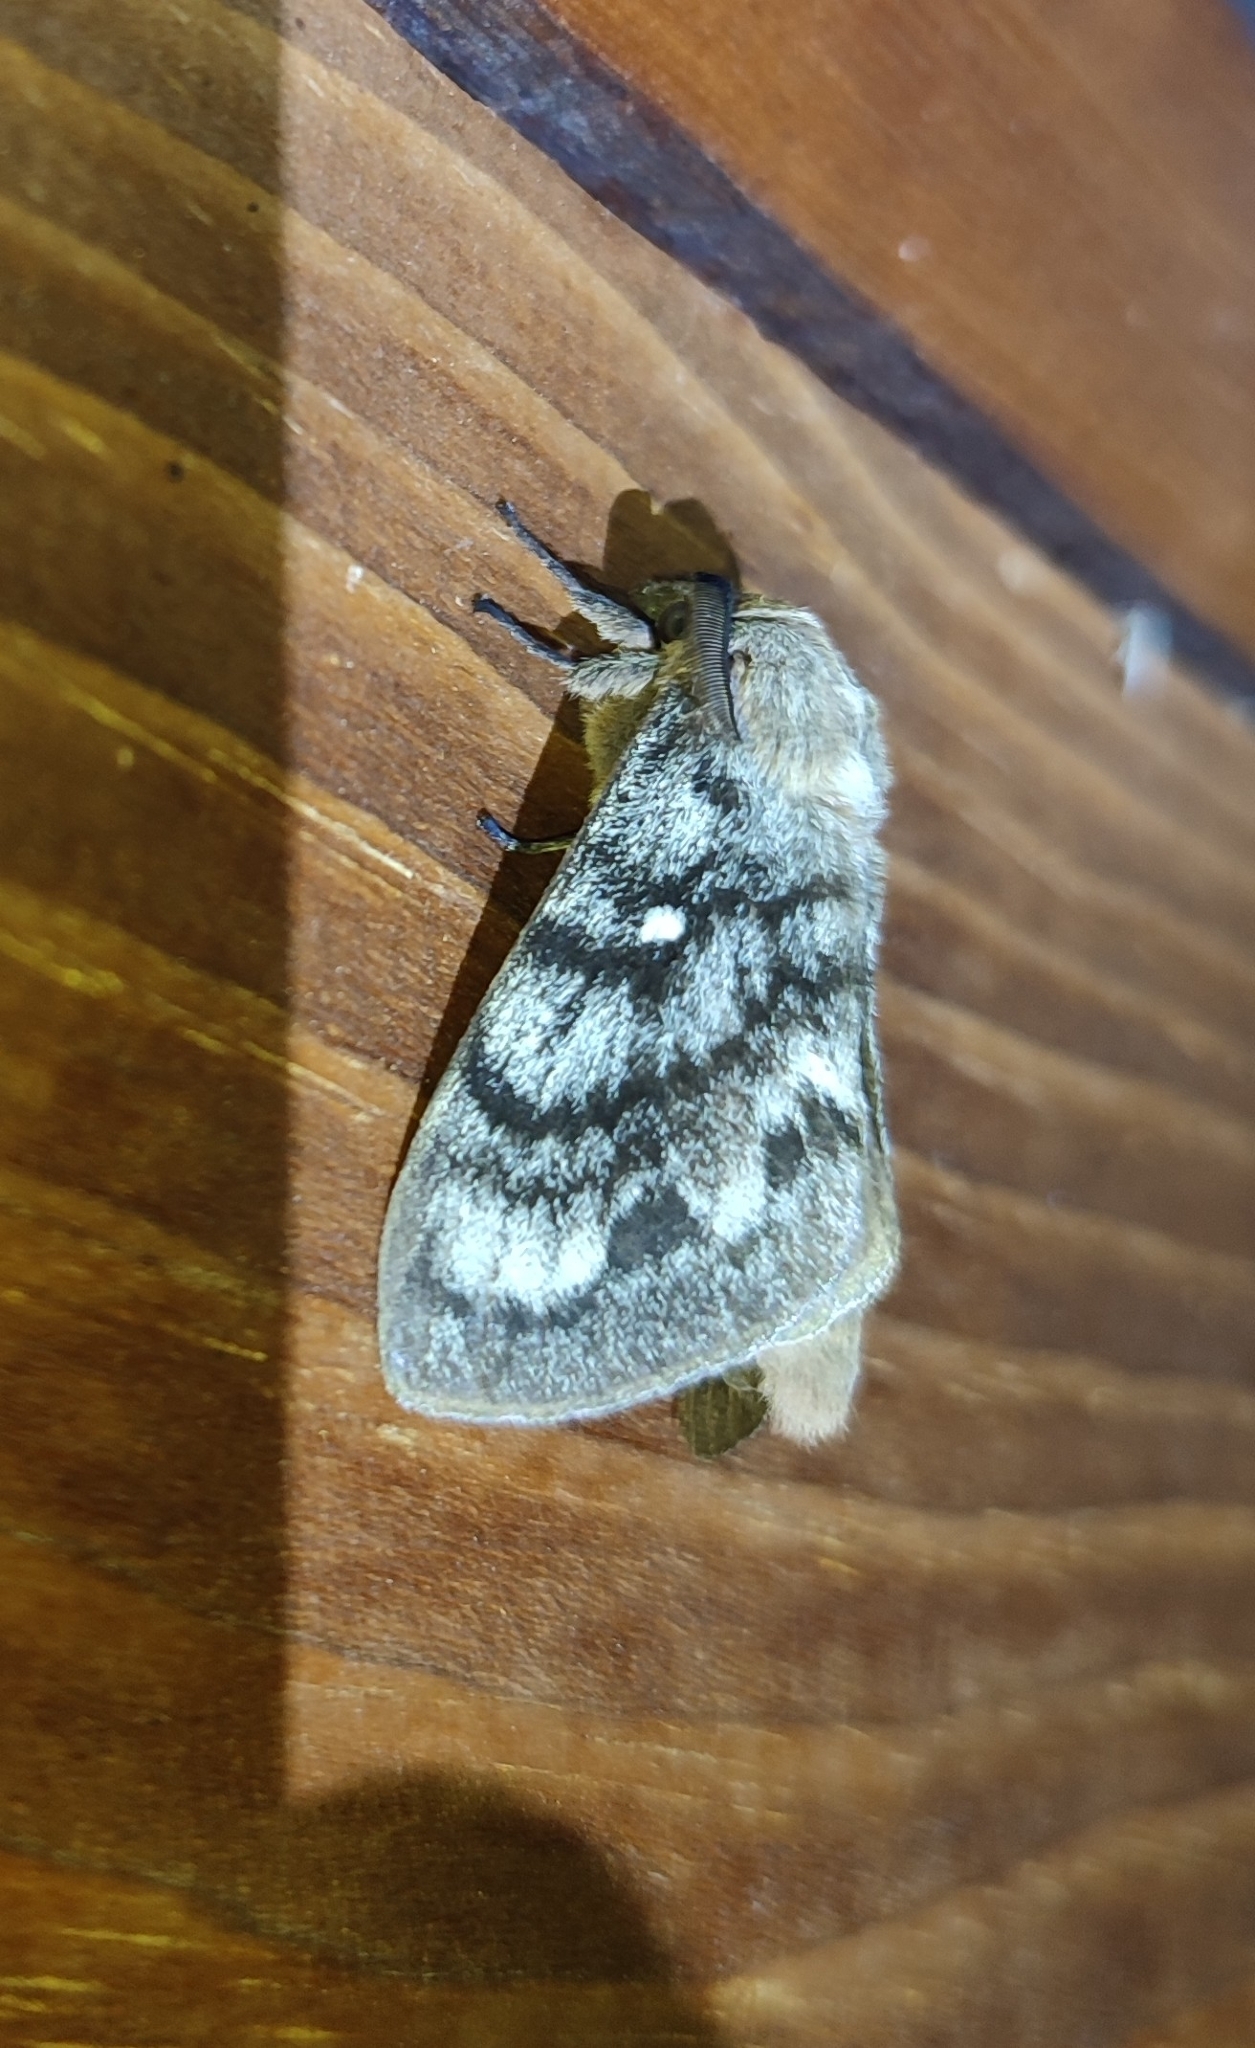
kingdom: Animalia
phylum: Arthropoda
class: Insecta
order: Lepidoptera
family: Lasiocampidae
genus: Dendrolimus
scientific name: Dendrolimus superans
